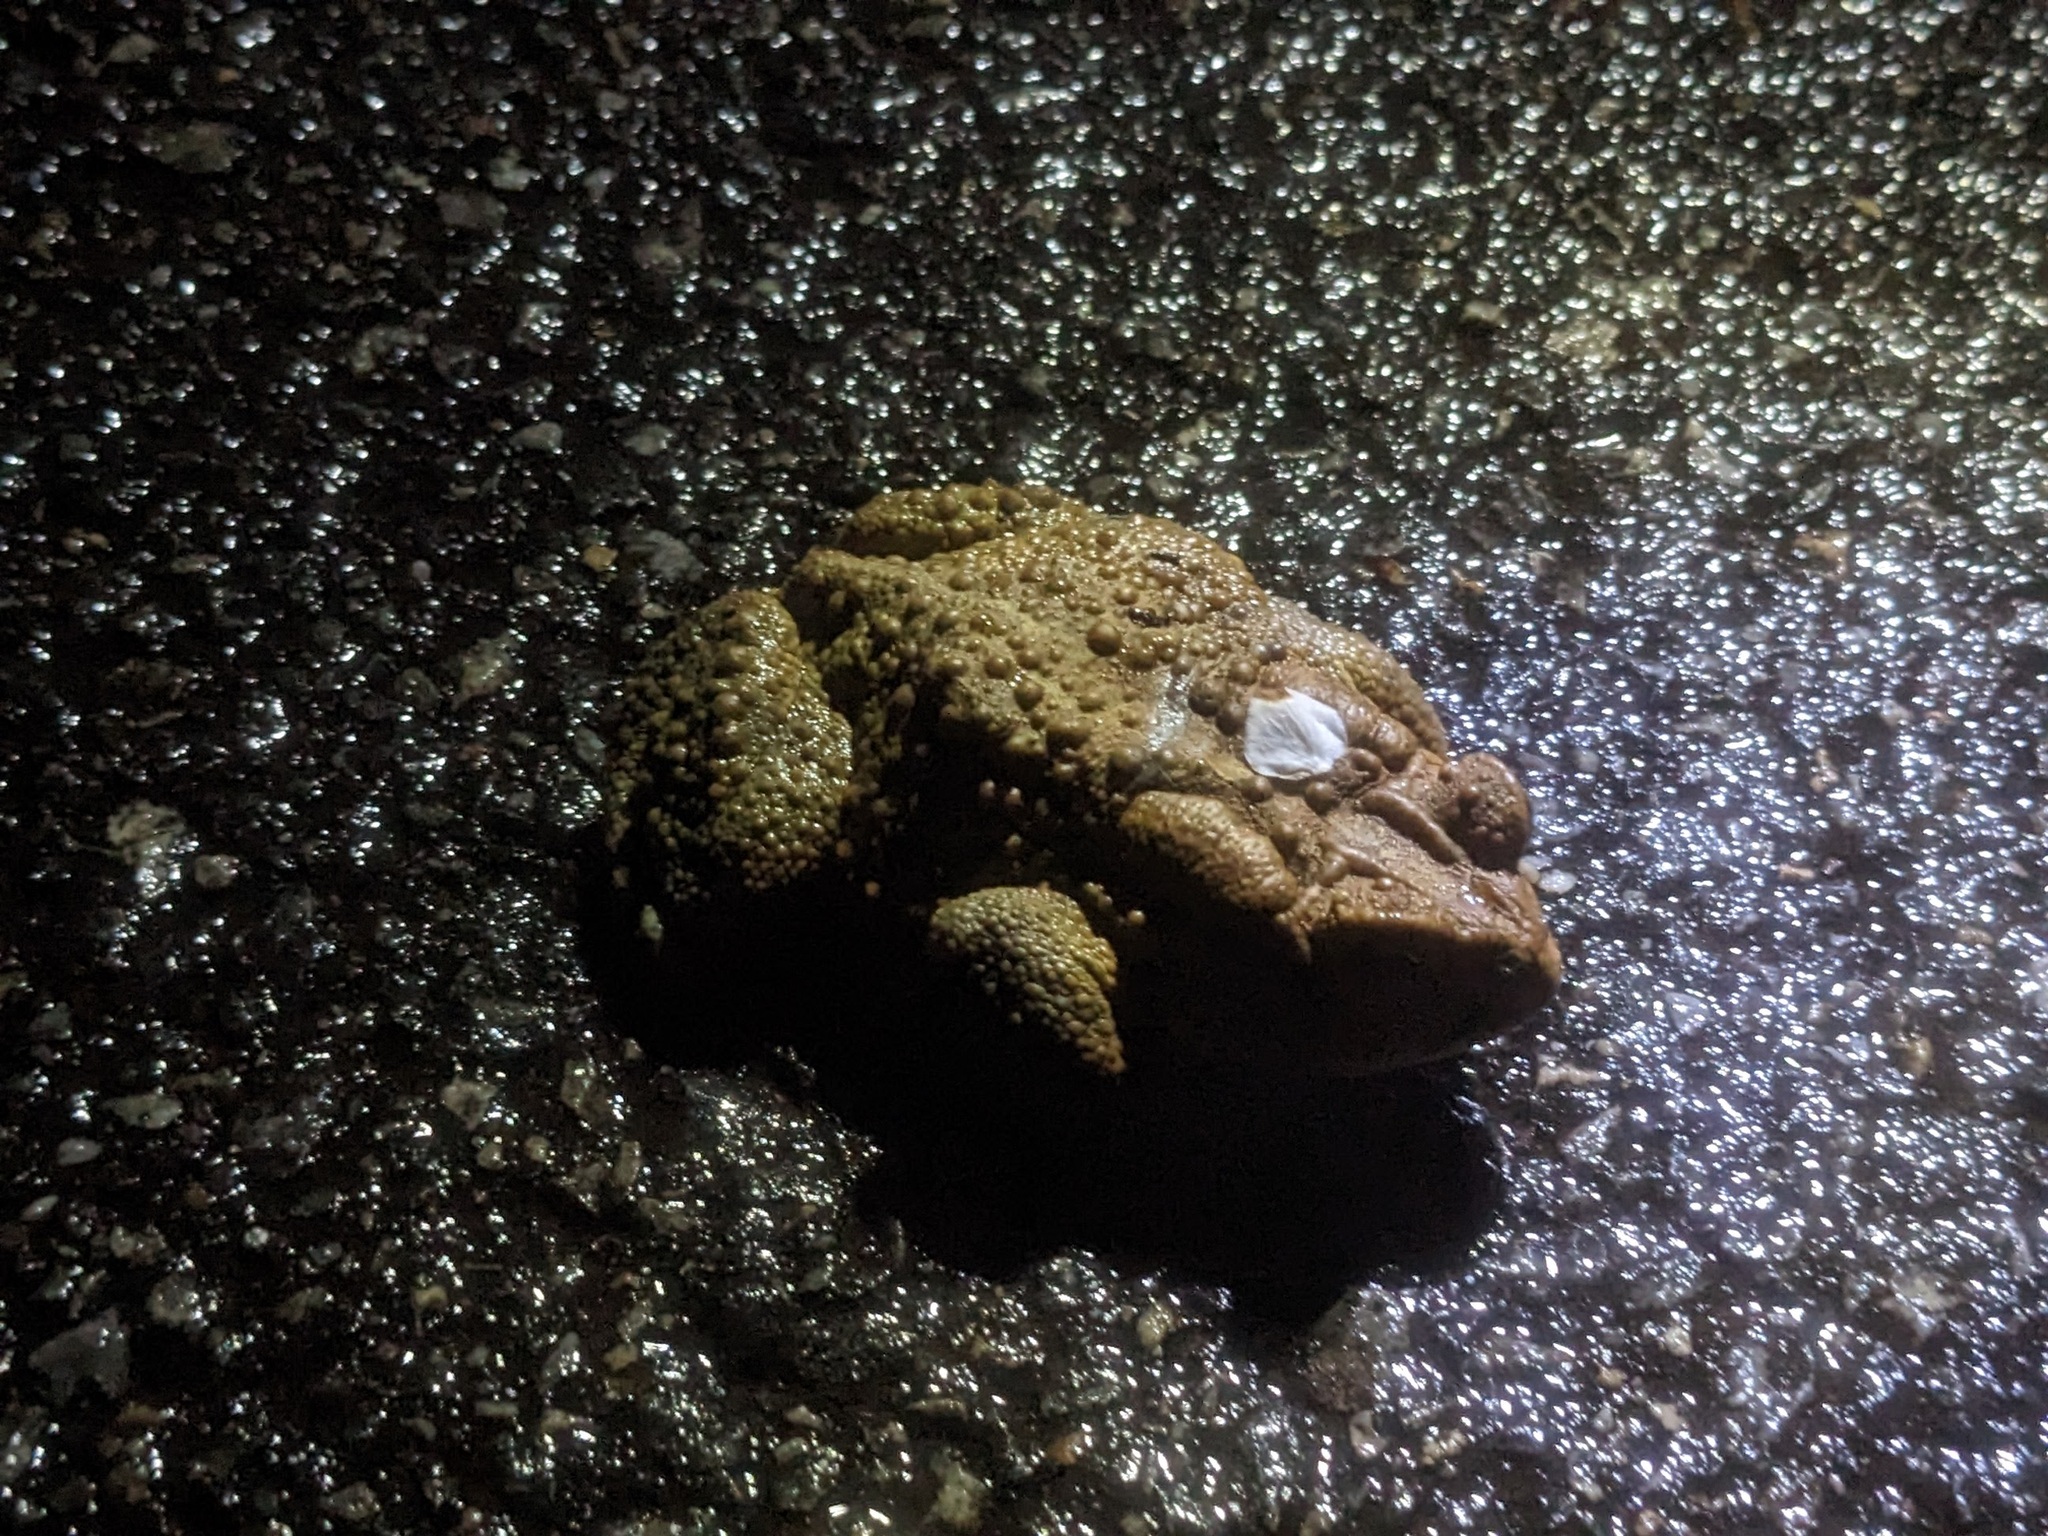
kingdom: Animalia
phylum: Chordata
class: Amphibia
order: Anura
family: Bufonidae
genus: Anaxyrus
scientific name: Anaxyrus americanus
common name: American toad
